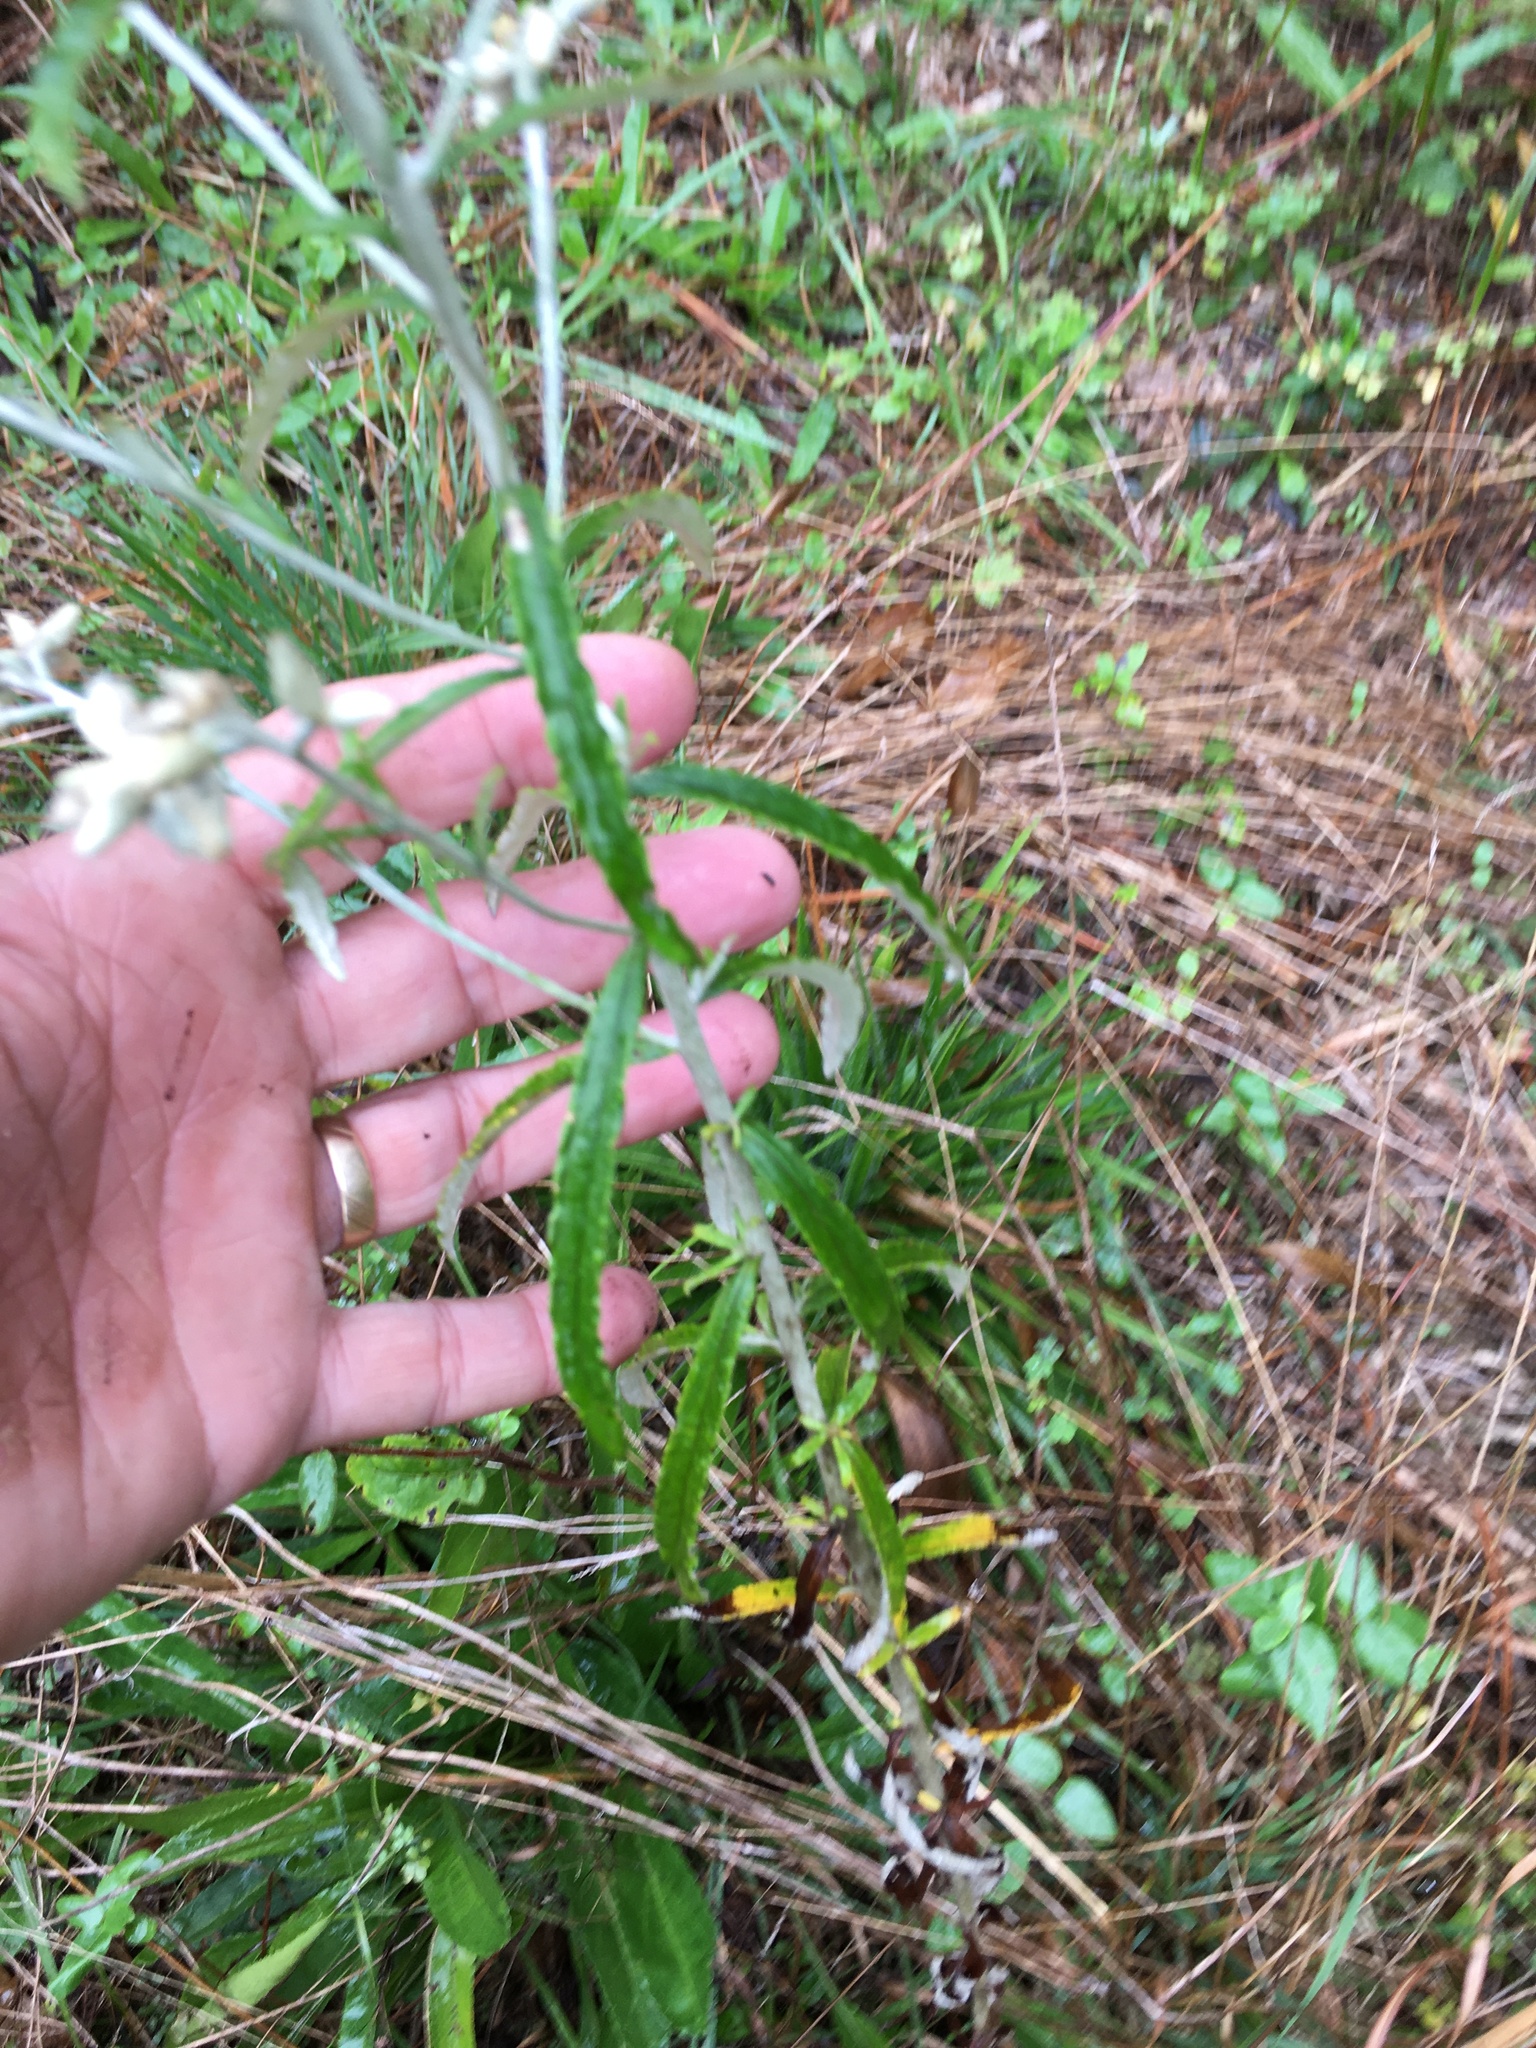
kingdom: Plantae
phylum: Tracheophyta
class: Magnoliopsida
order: Asterales
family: Asteraceae
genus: Pseudognaphalium
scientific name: Pseudognaphalium obtusifolium
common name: Eastern rabbit-tobacco
